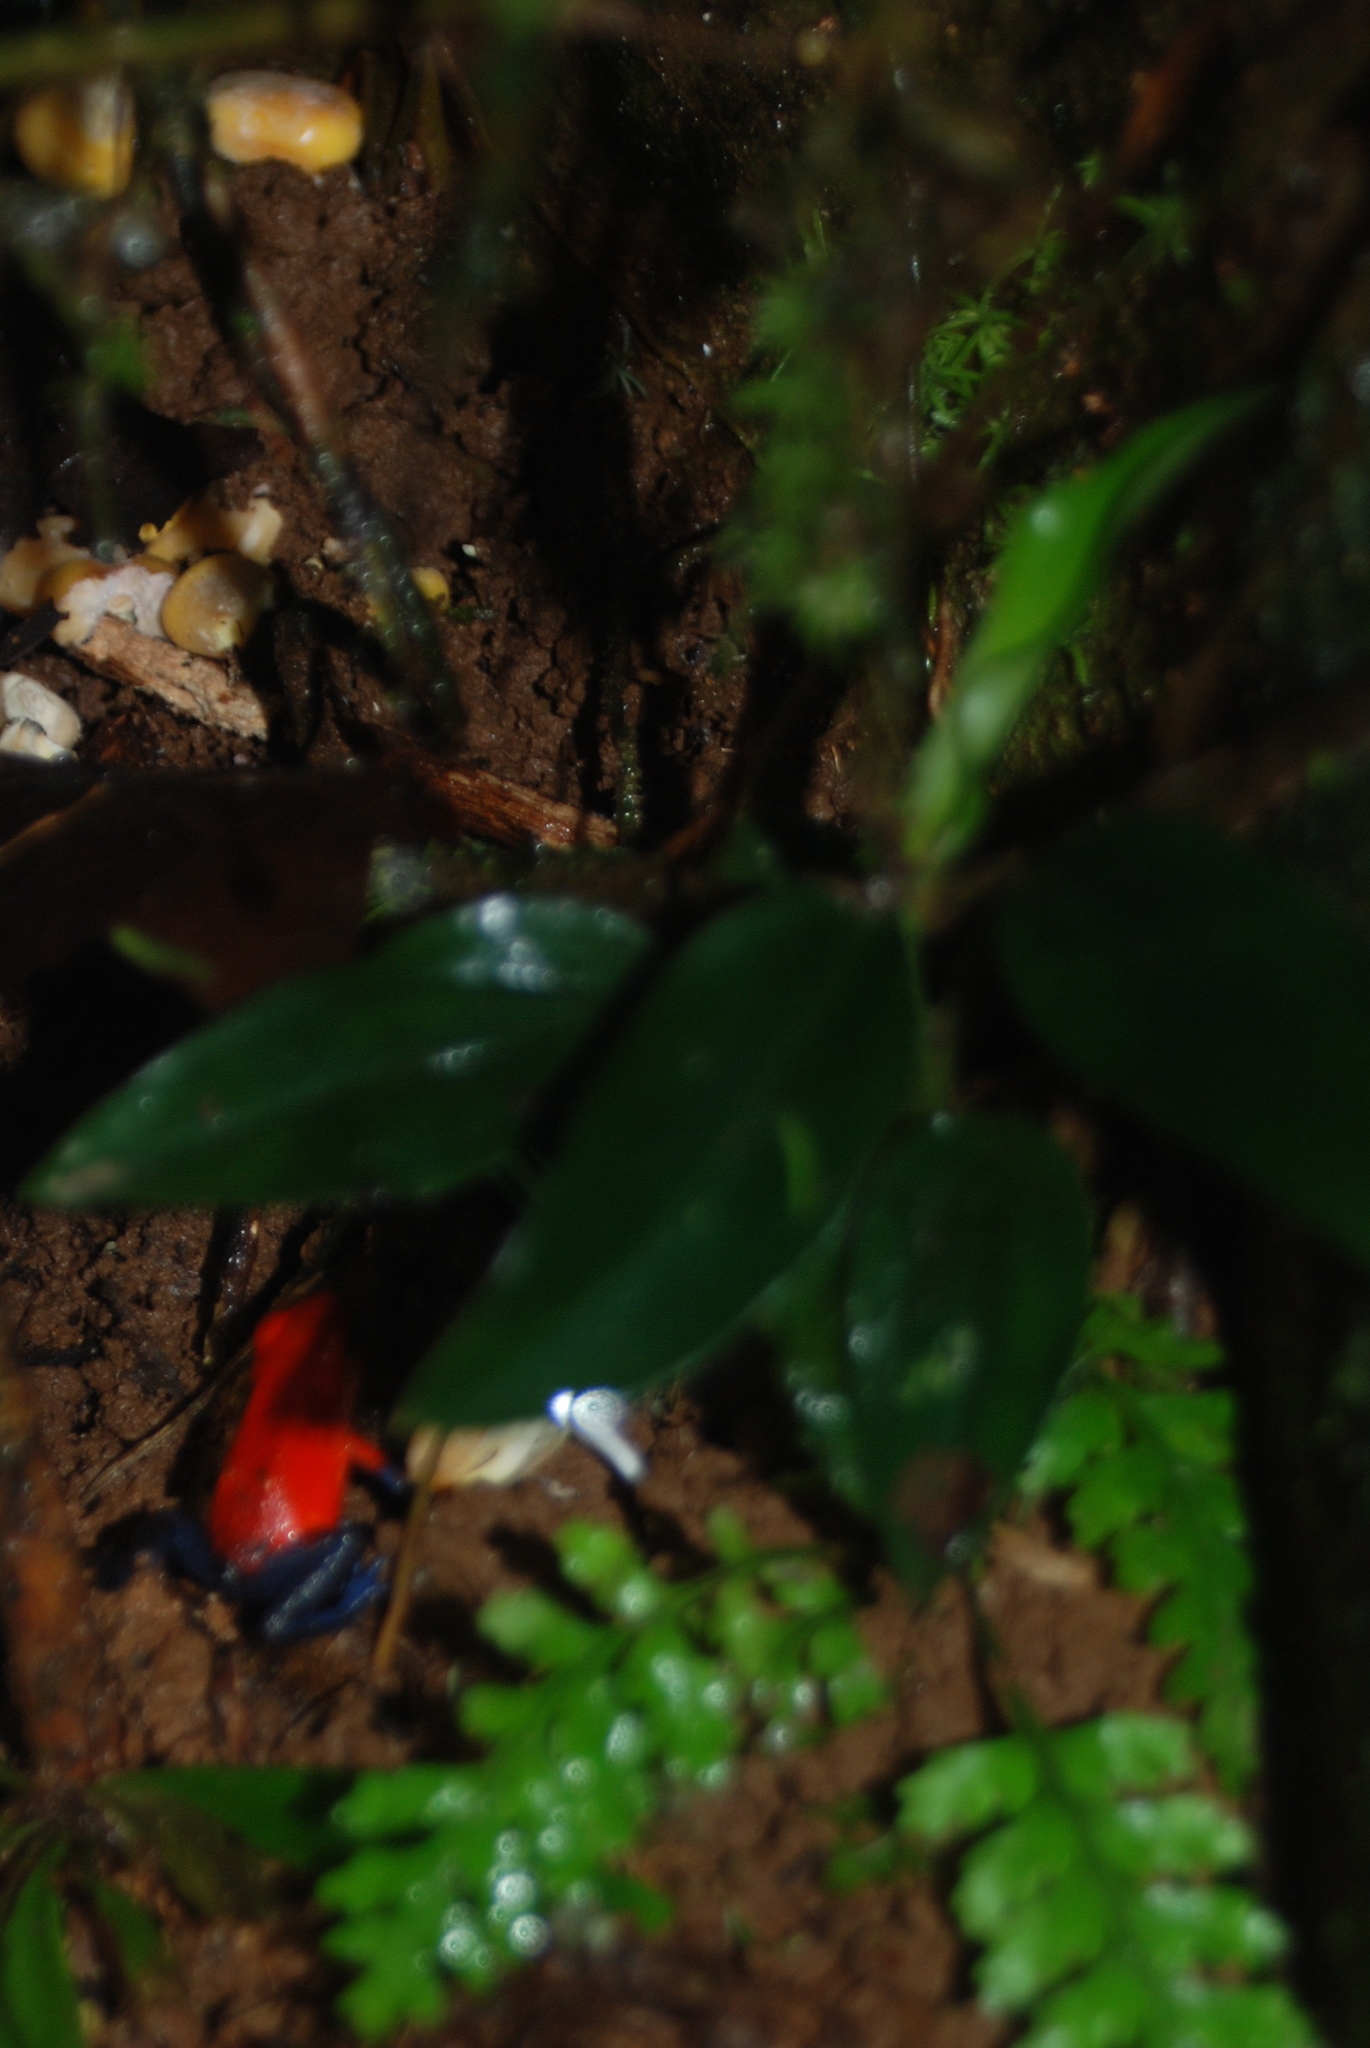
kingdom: Animalia
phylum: Chordata
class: Amphibia
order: Anura
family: Dendrobatidae
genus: Oophaga
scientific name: Oophaga pumilio
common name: Flaming poison frog
